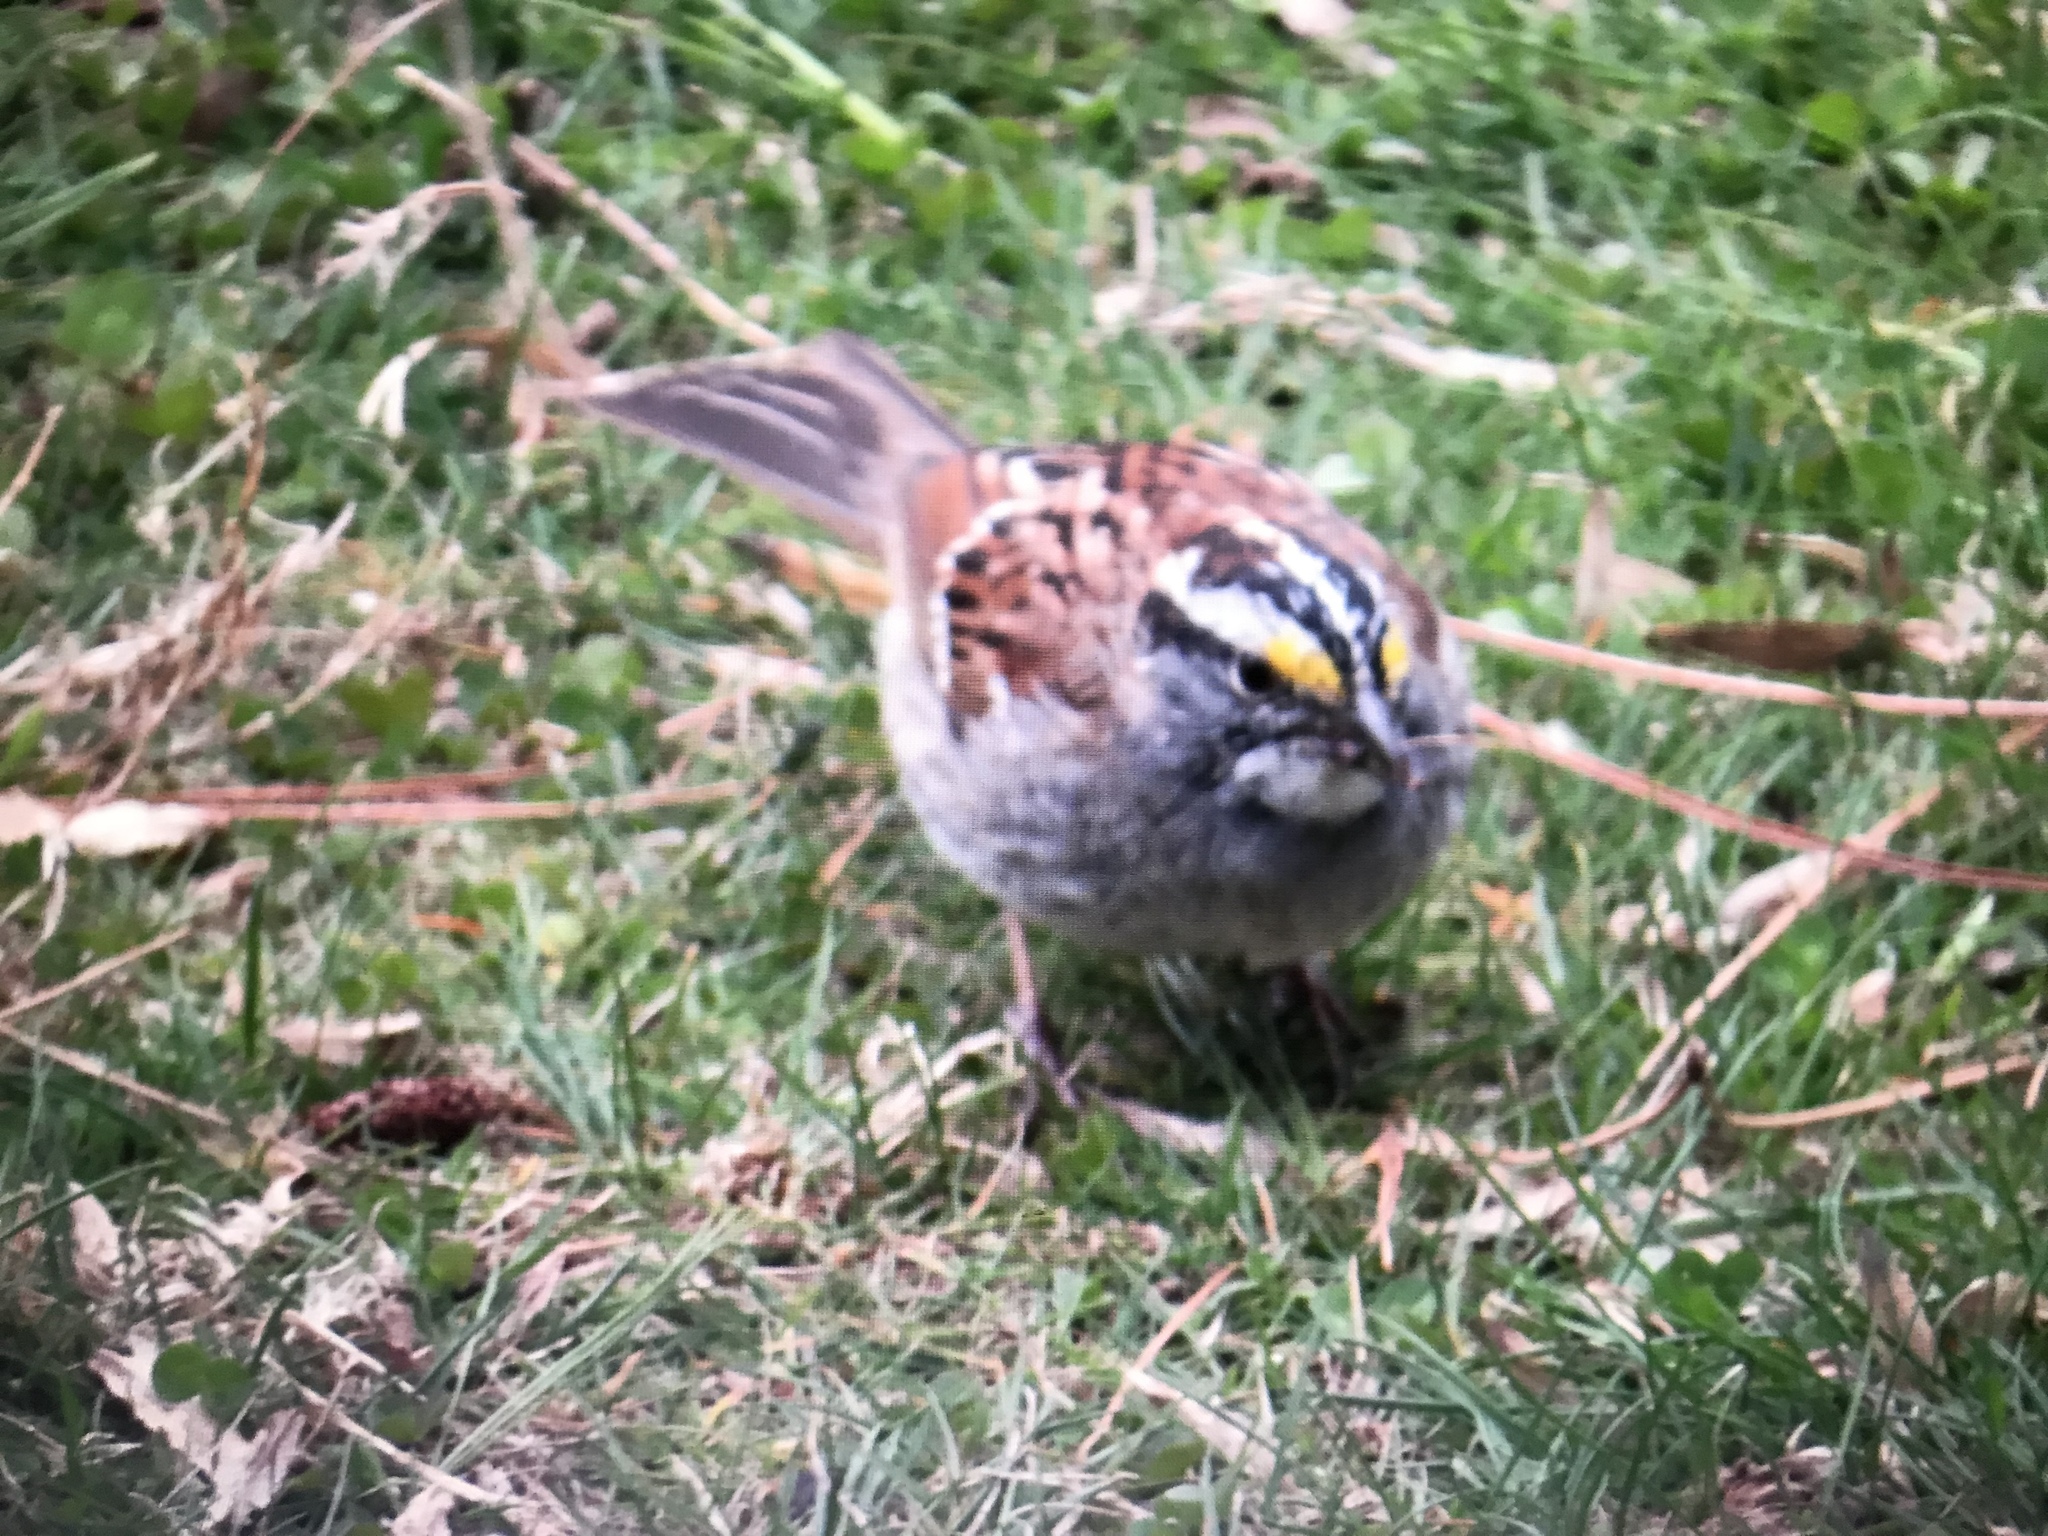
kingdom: Animalia
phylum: Chordata
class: Aves
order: Passeriformes
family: Passerellidae
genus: Zonotrichia
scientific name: Zonotrichia albicollis
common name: White-throated sparrow
